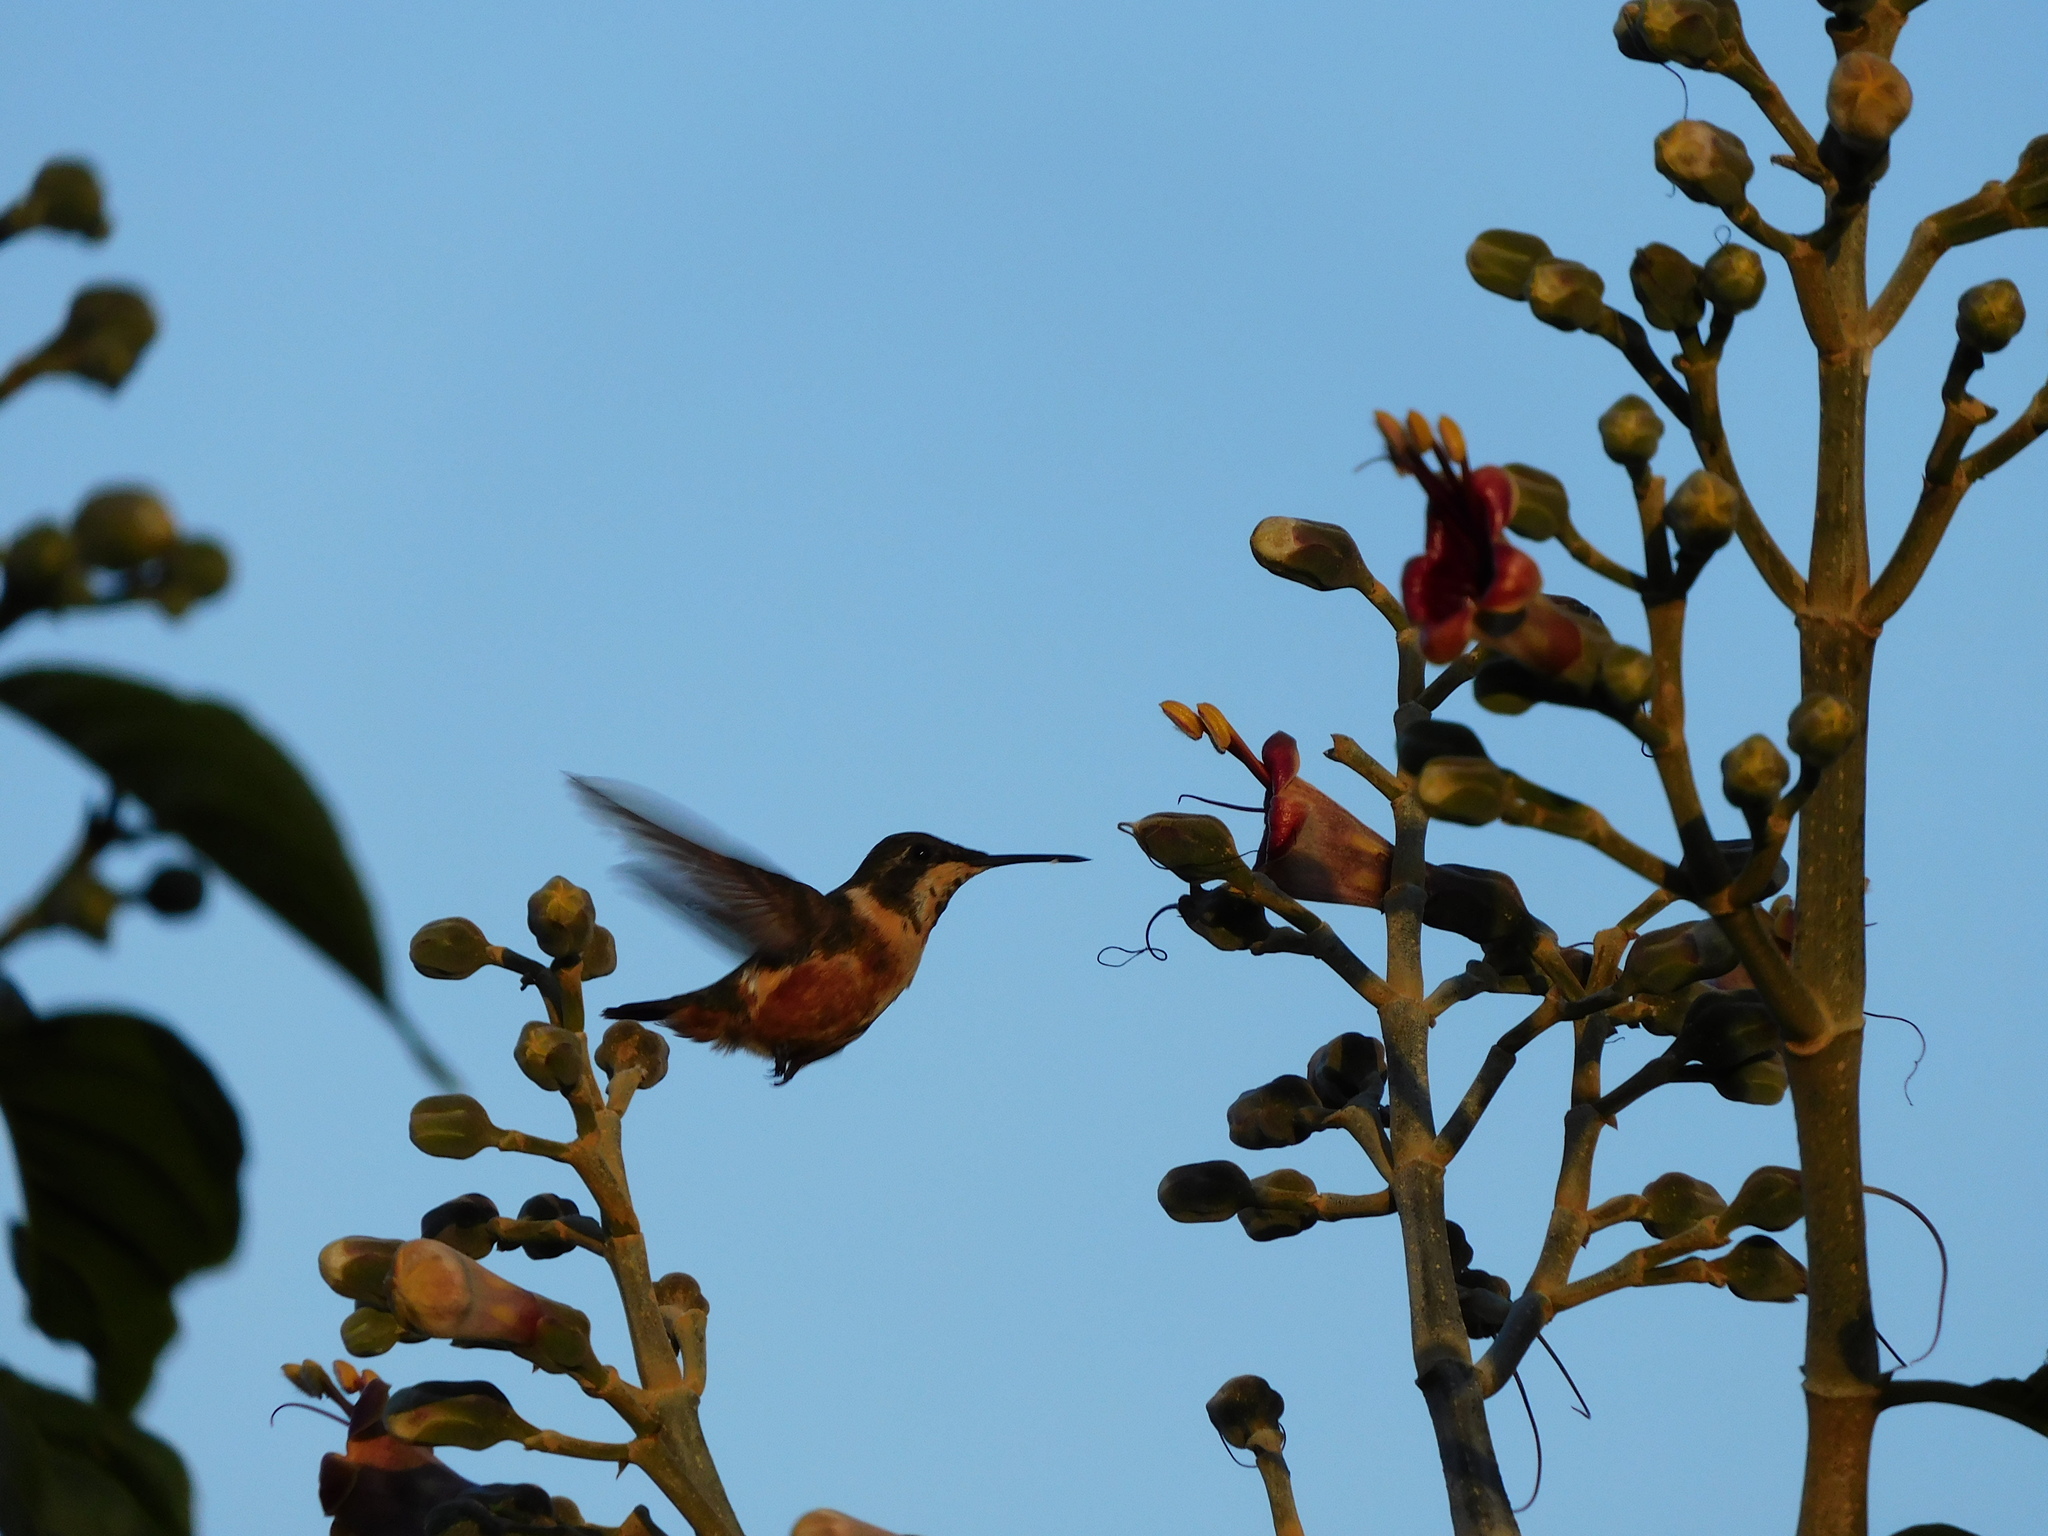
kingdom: Animalia
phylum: Chordata
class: Aves
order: Apodiformes
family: Trochilidae
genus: Chaetocercus
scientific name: Chaetocercus mulsant
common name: White-bellied woodstar
